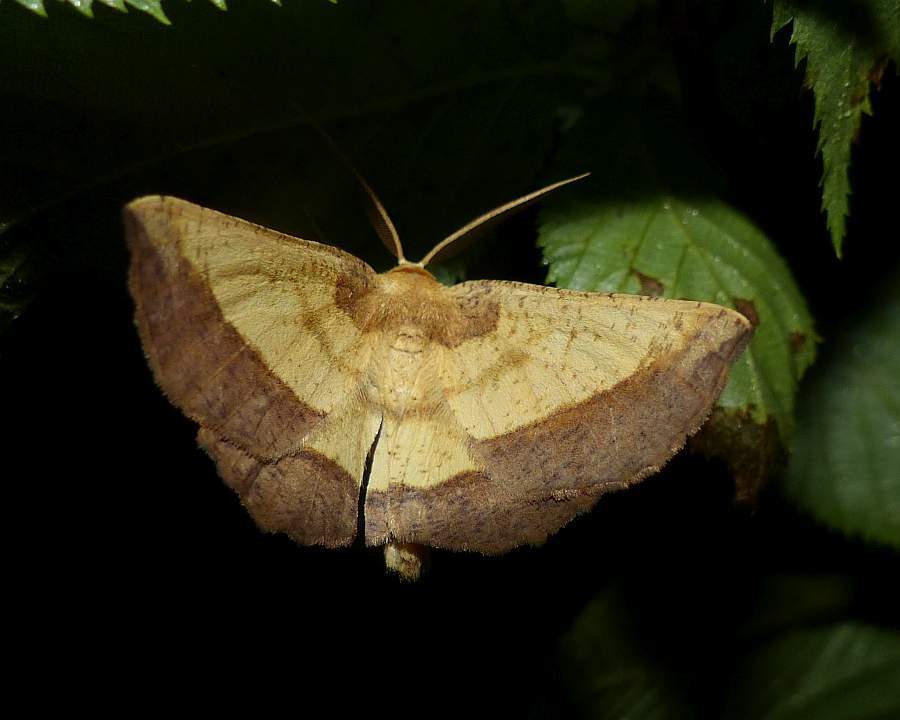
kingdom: Animalia
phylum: Arthropoda
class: Insecta
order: Lepidoptera
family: Geometridae
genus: Euchlaena
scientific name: Euchlaena serrata
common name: Saw wing
